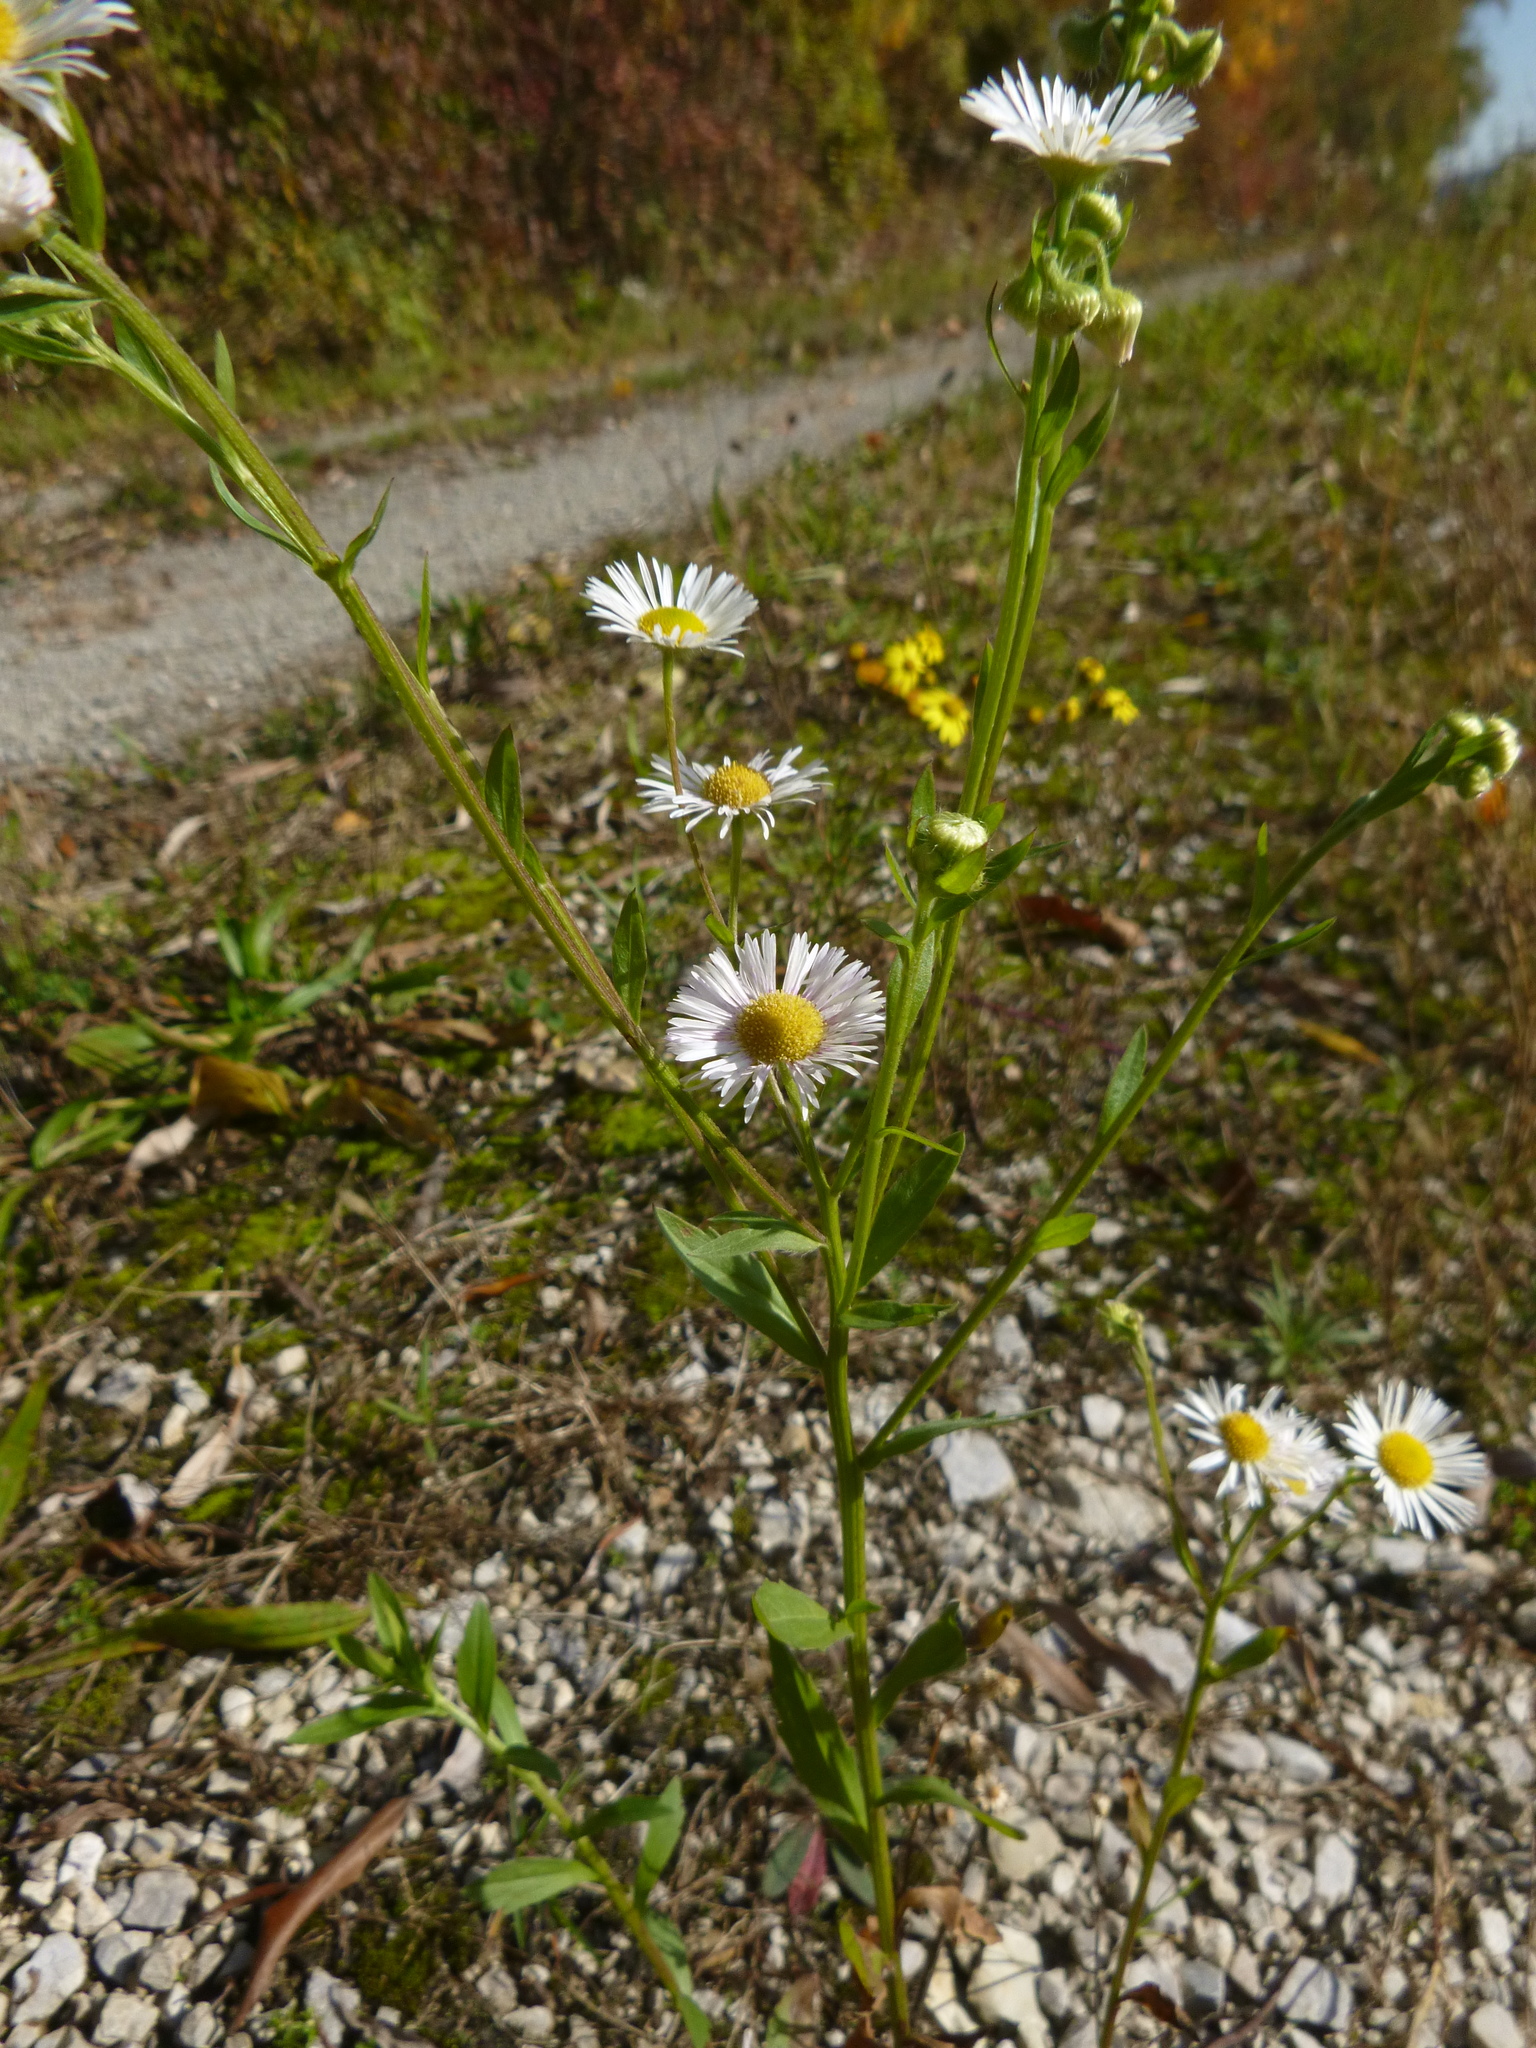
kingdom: Plantae
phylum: Tracheophyta
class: Magnoliopsida
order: Asterales
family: Asteraceae
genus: Erigeron
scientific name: Erigeron annuus
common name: Tall fleabane
